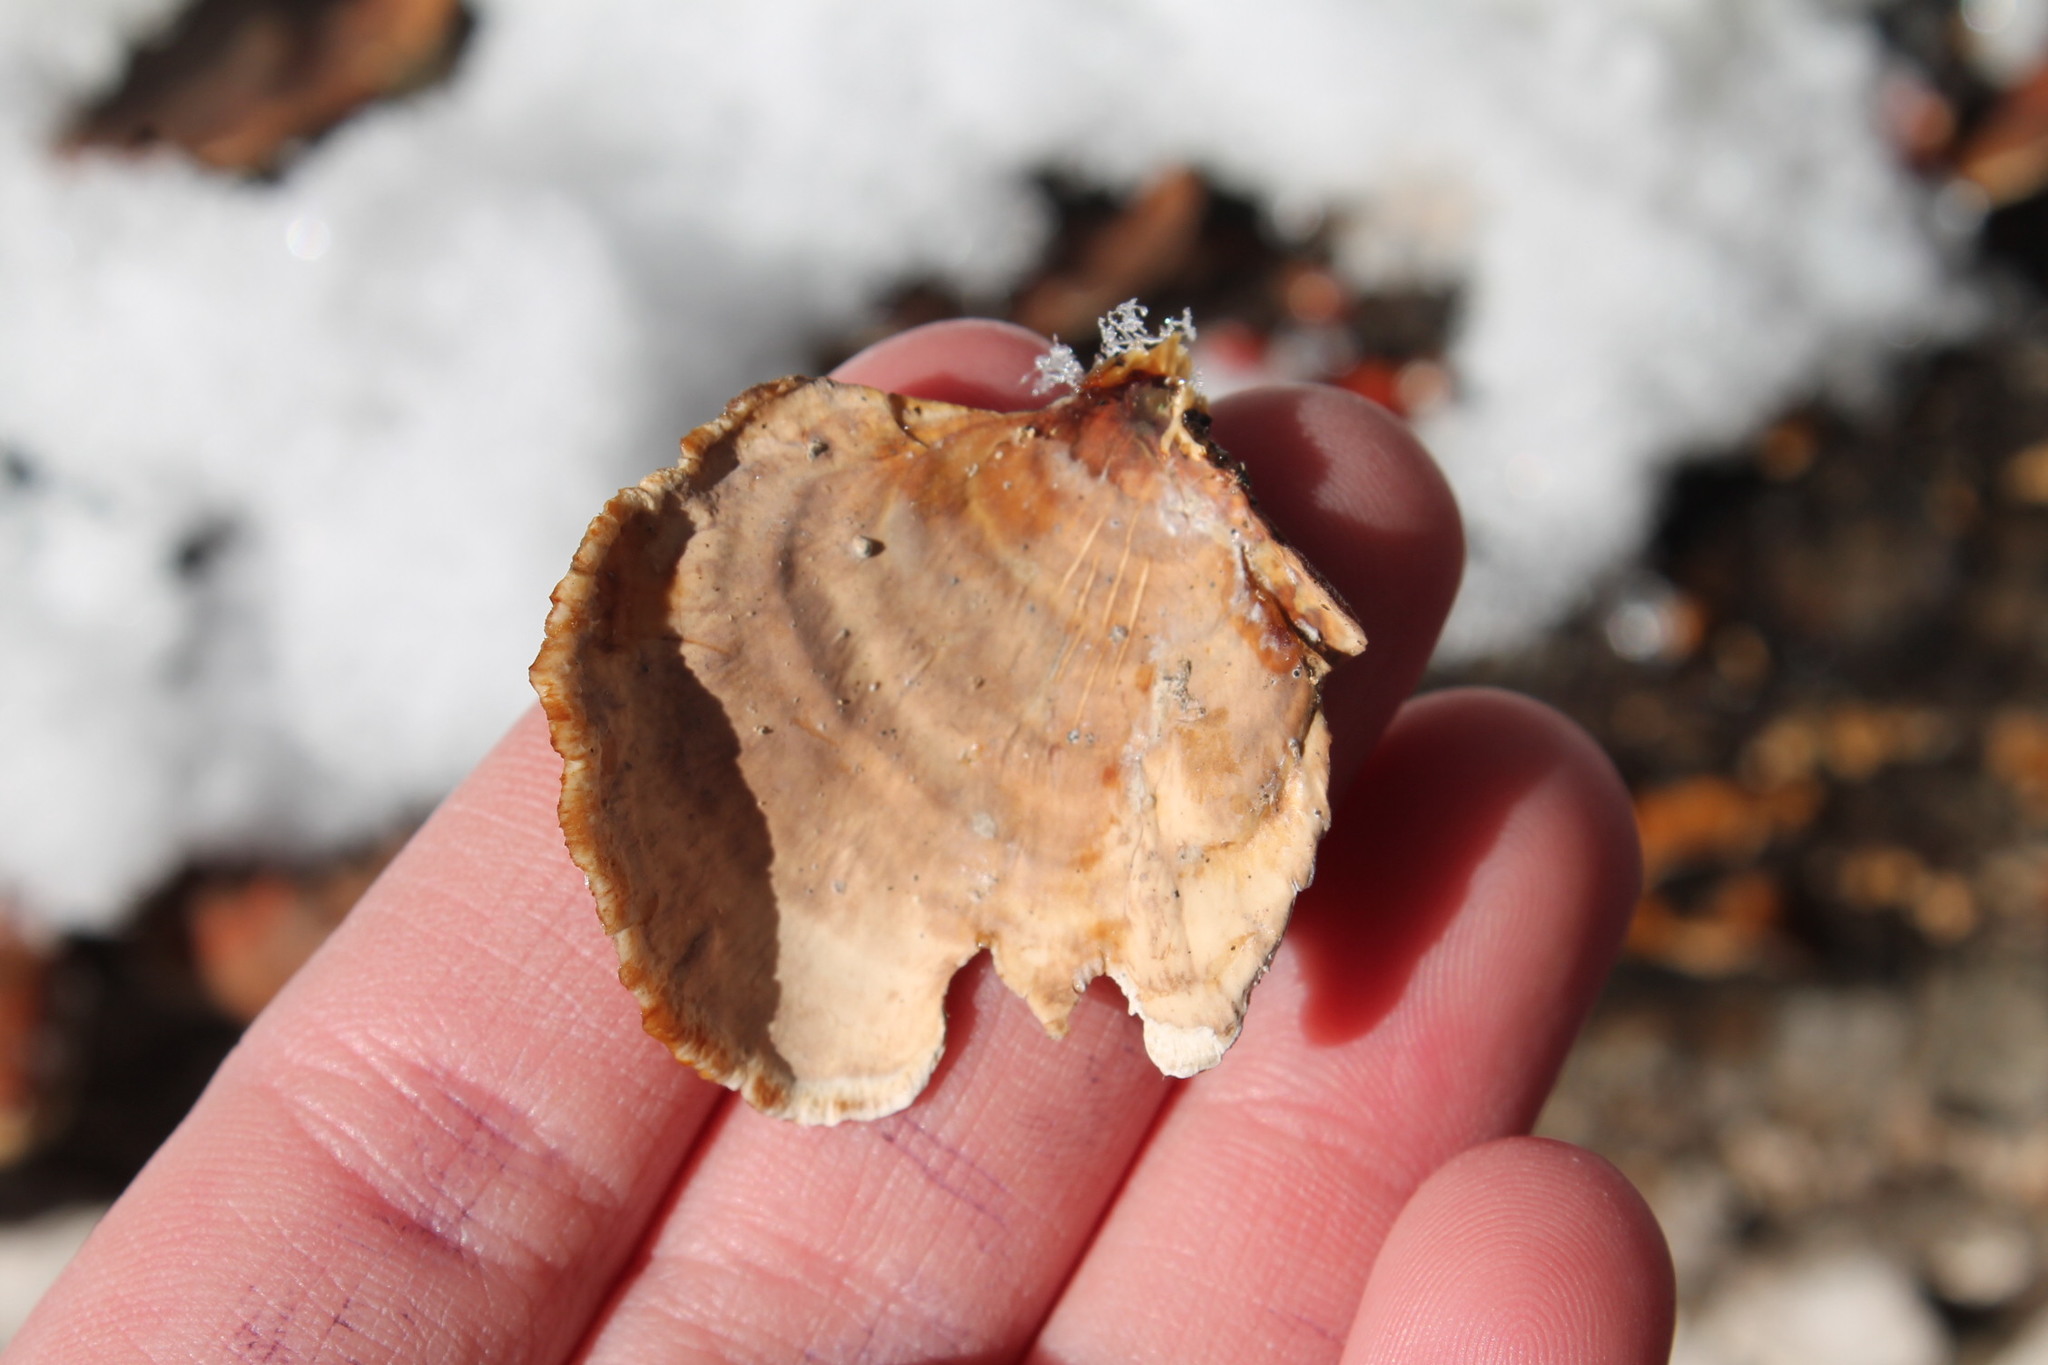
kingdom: Fungi
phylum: Basidiomycota
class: Agaricomycetes
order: Russulales
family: Stereaceae
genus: Stereum
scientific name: Stereum lobatum
